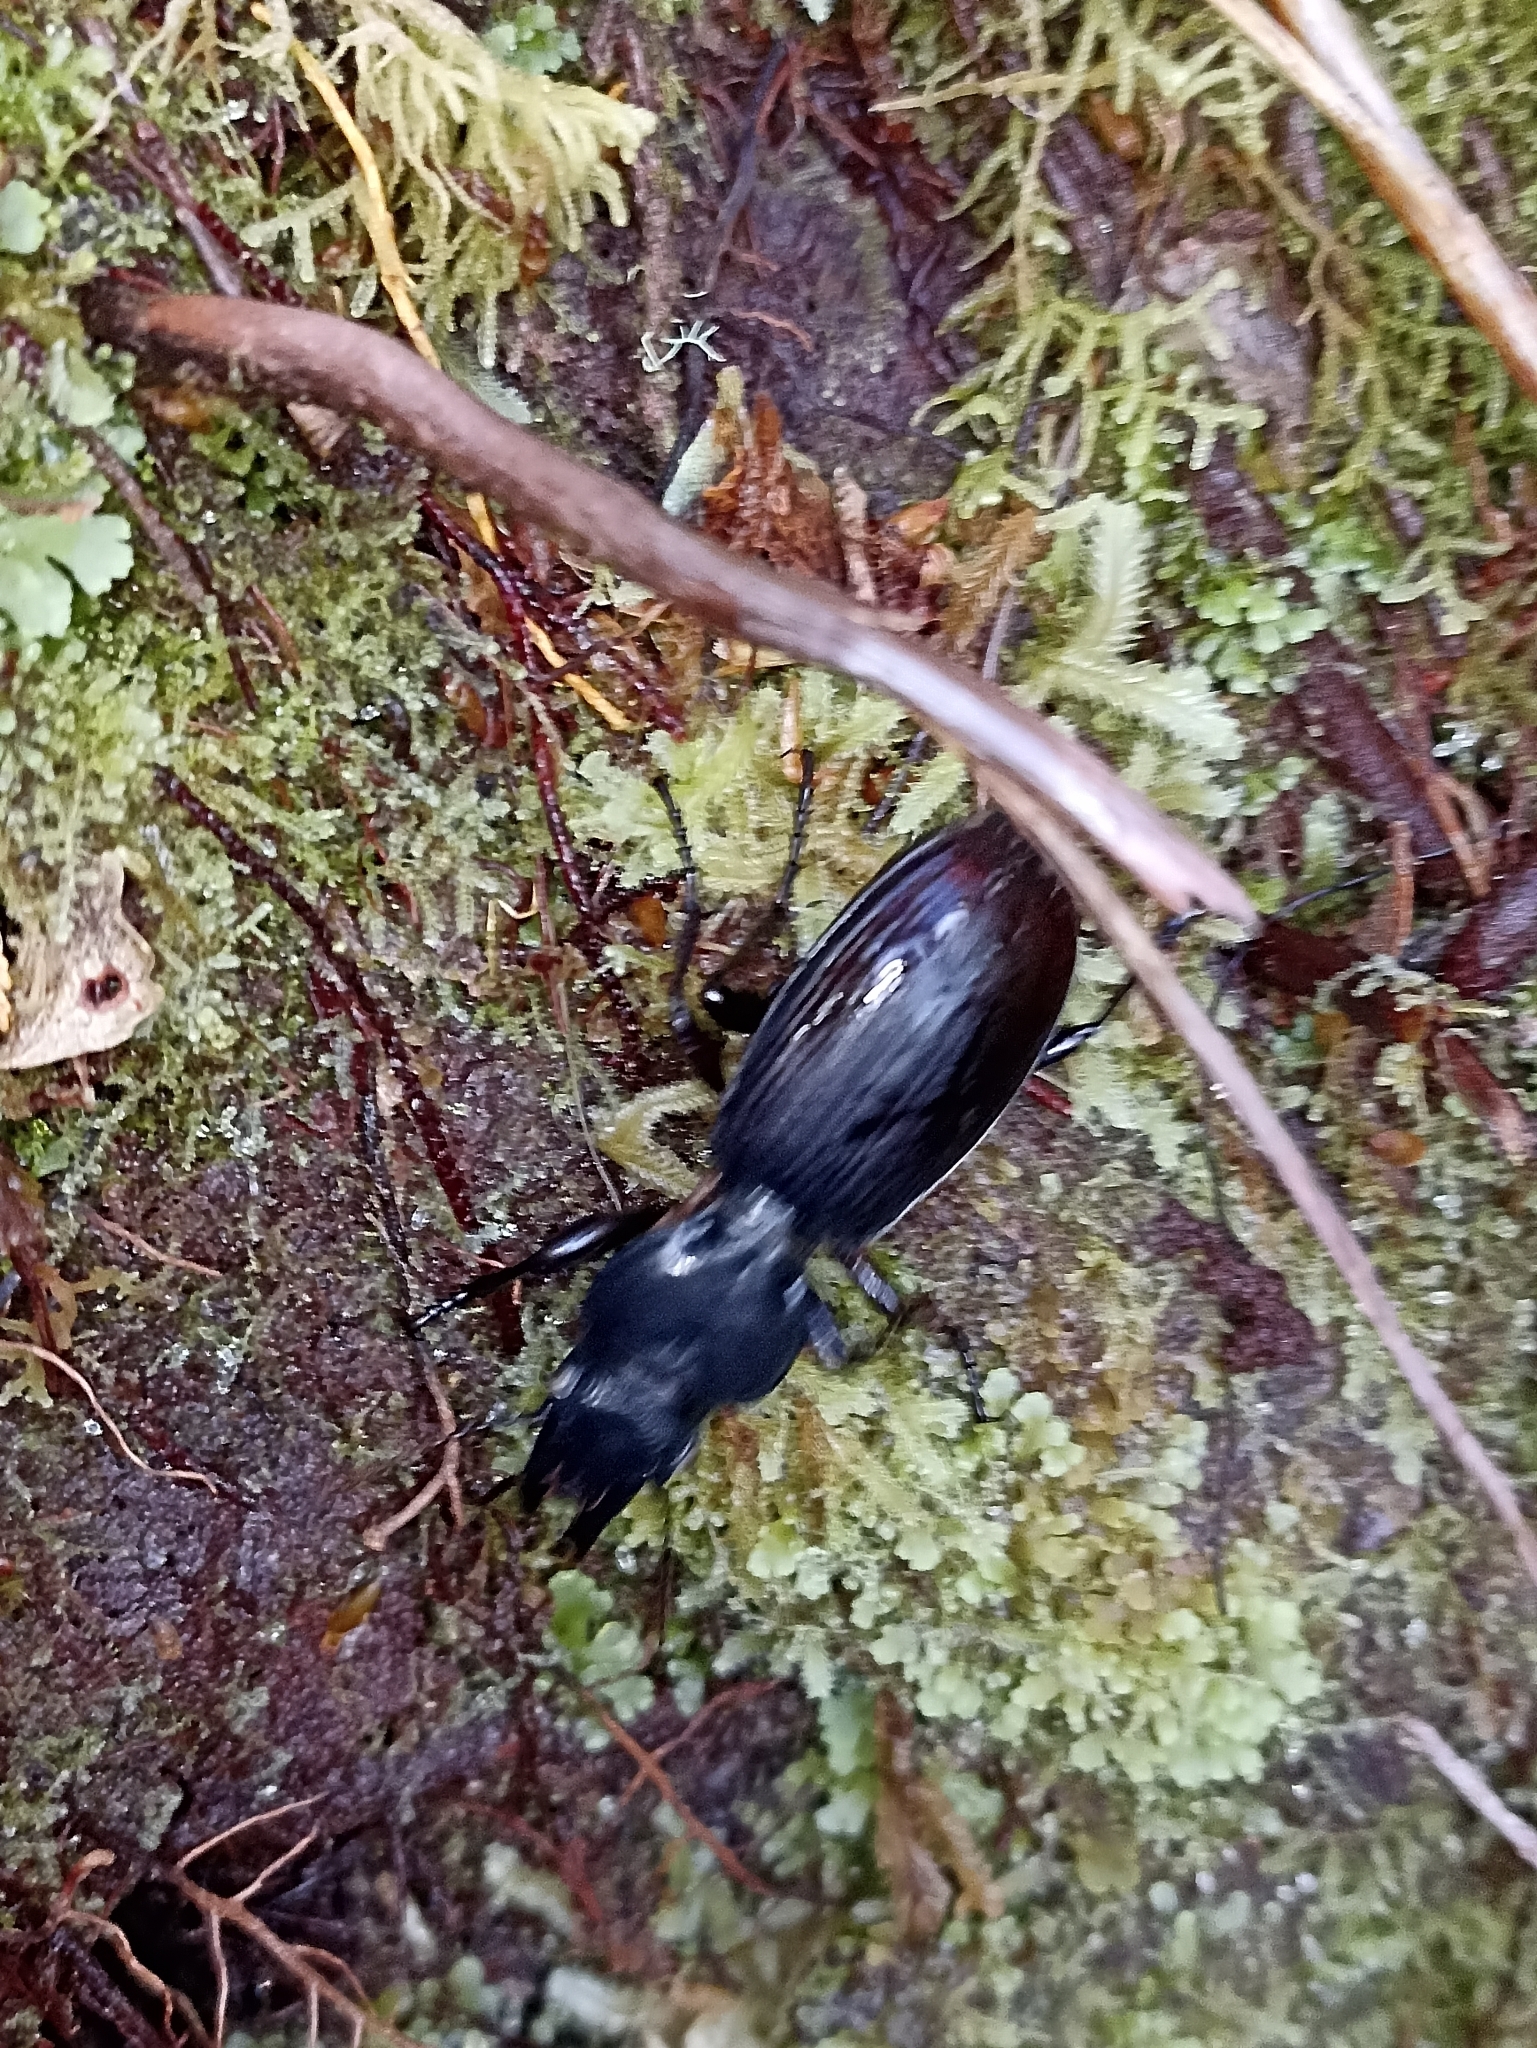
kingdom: Animalia
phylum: Arthropoda
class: Insecta
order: Coleoptera
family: Carabidae
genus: Mecodema
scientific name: Mecodema validum
